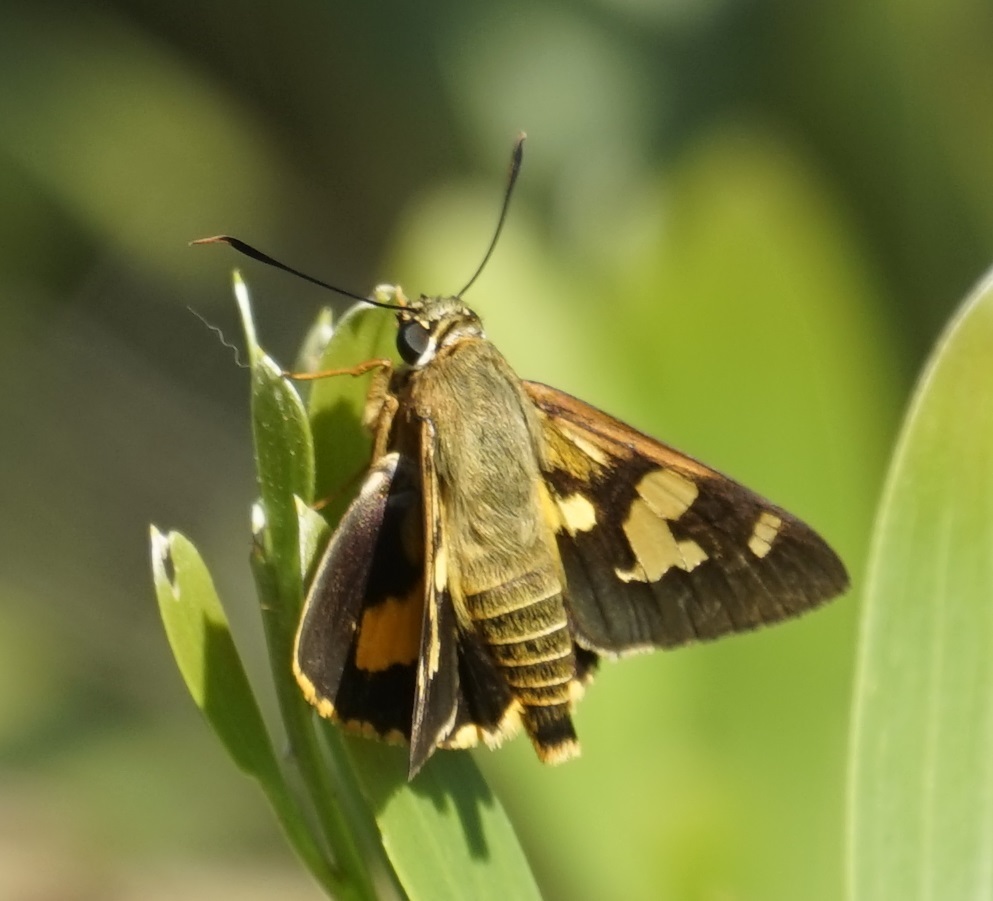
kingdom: Animalia
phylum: Arthropoda
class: Insecta
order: Lepidoptera
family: Hesperiidae
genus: Trapezites
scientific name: Trapezites symmomus
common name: Splendid ochre
